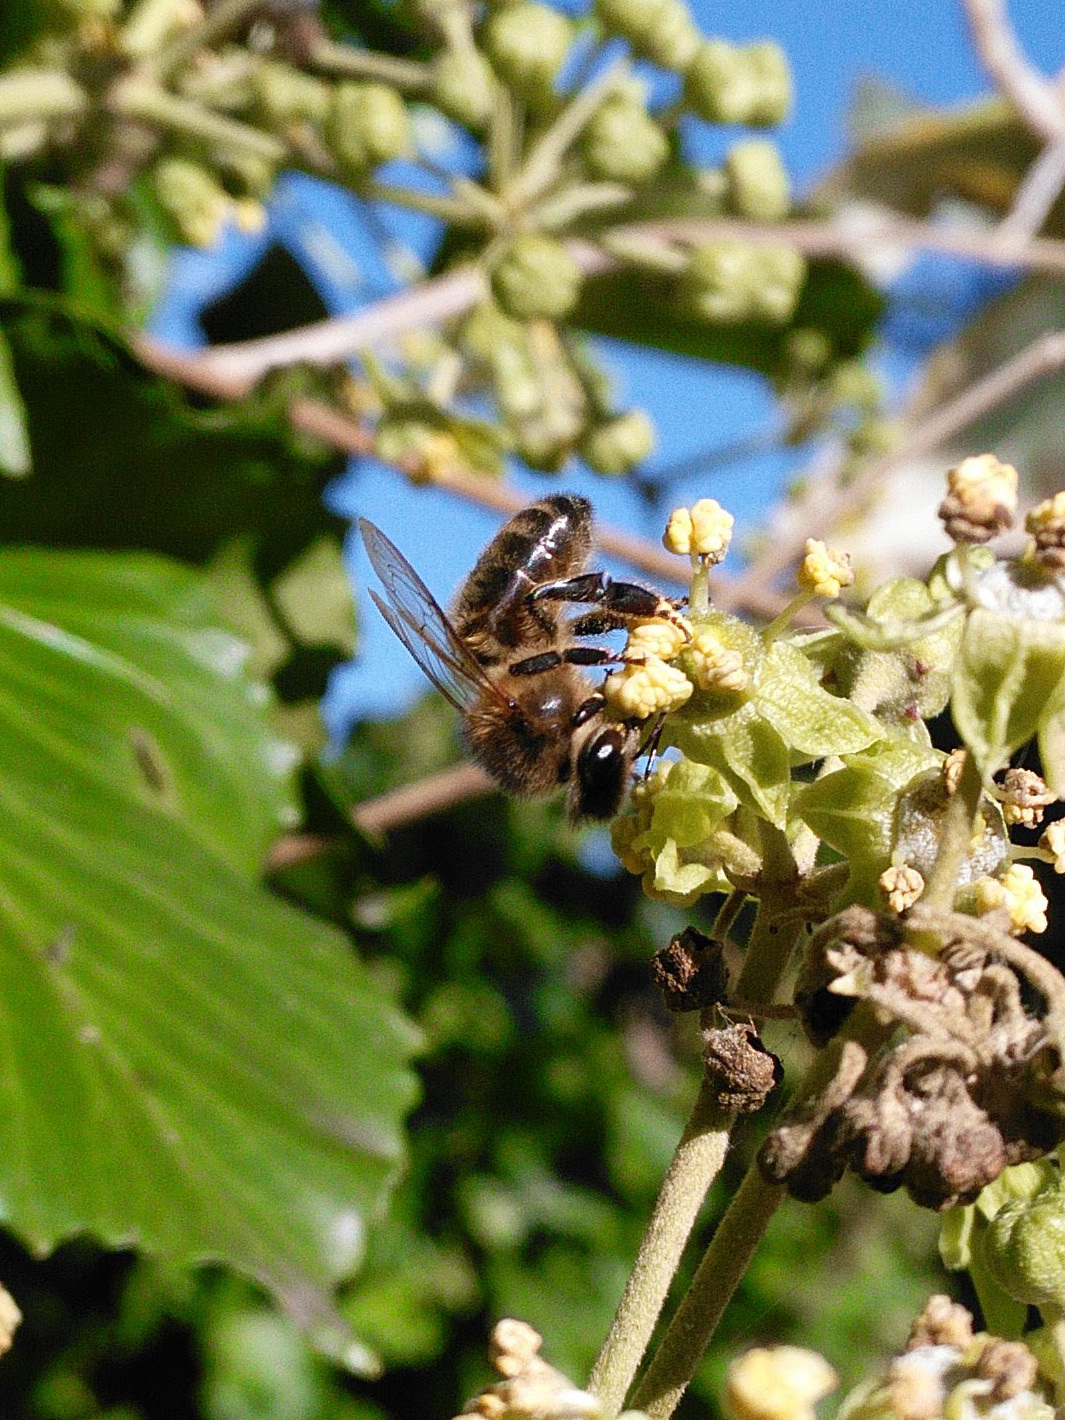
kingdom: Animalia
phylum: Arthropoda
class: Insecta
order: Hymenoptera
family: Apidae
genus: Apis
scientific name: Apis mellifera
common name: Honey bee
